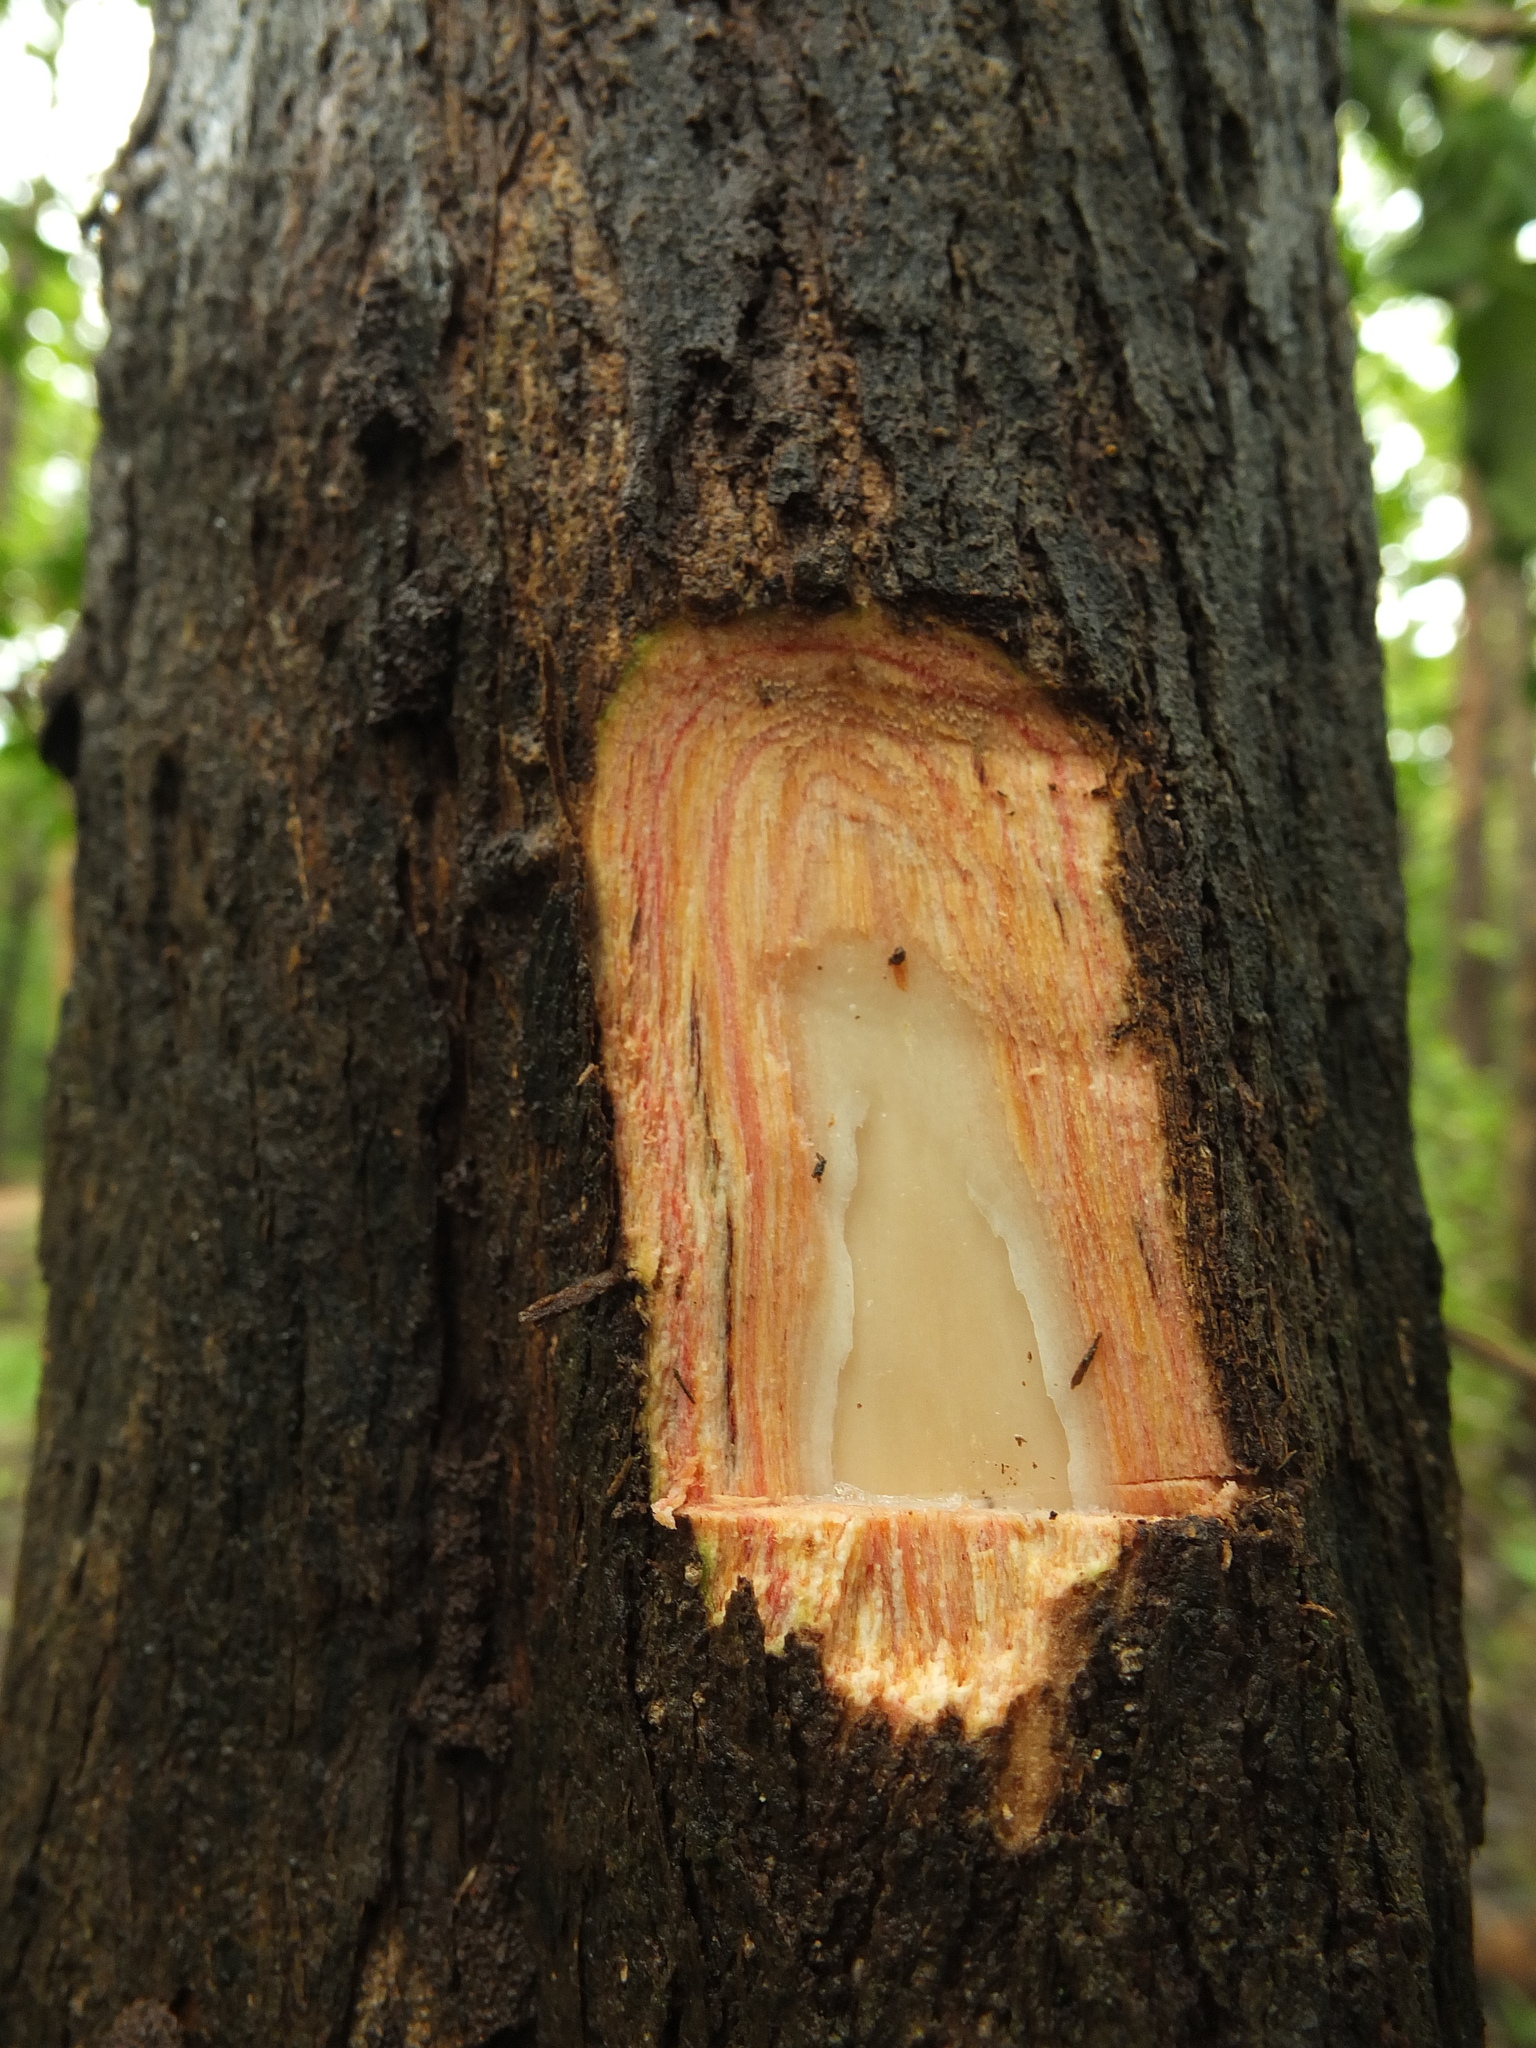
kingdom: Plantae
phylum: Tracheophyta
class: Magnoliopsida
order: Gentianales
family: Rubiaceae
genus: Meyna
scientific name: Meyna laxiflora
